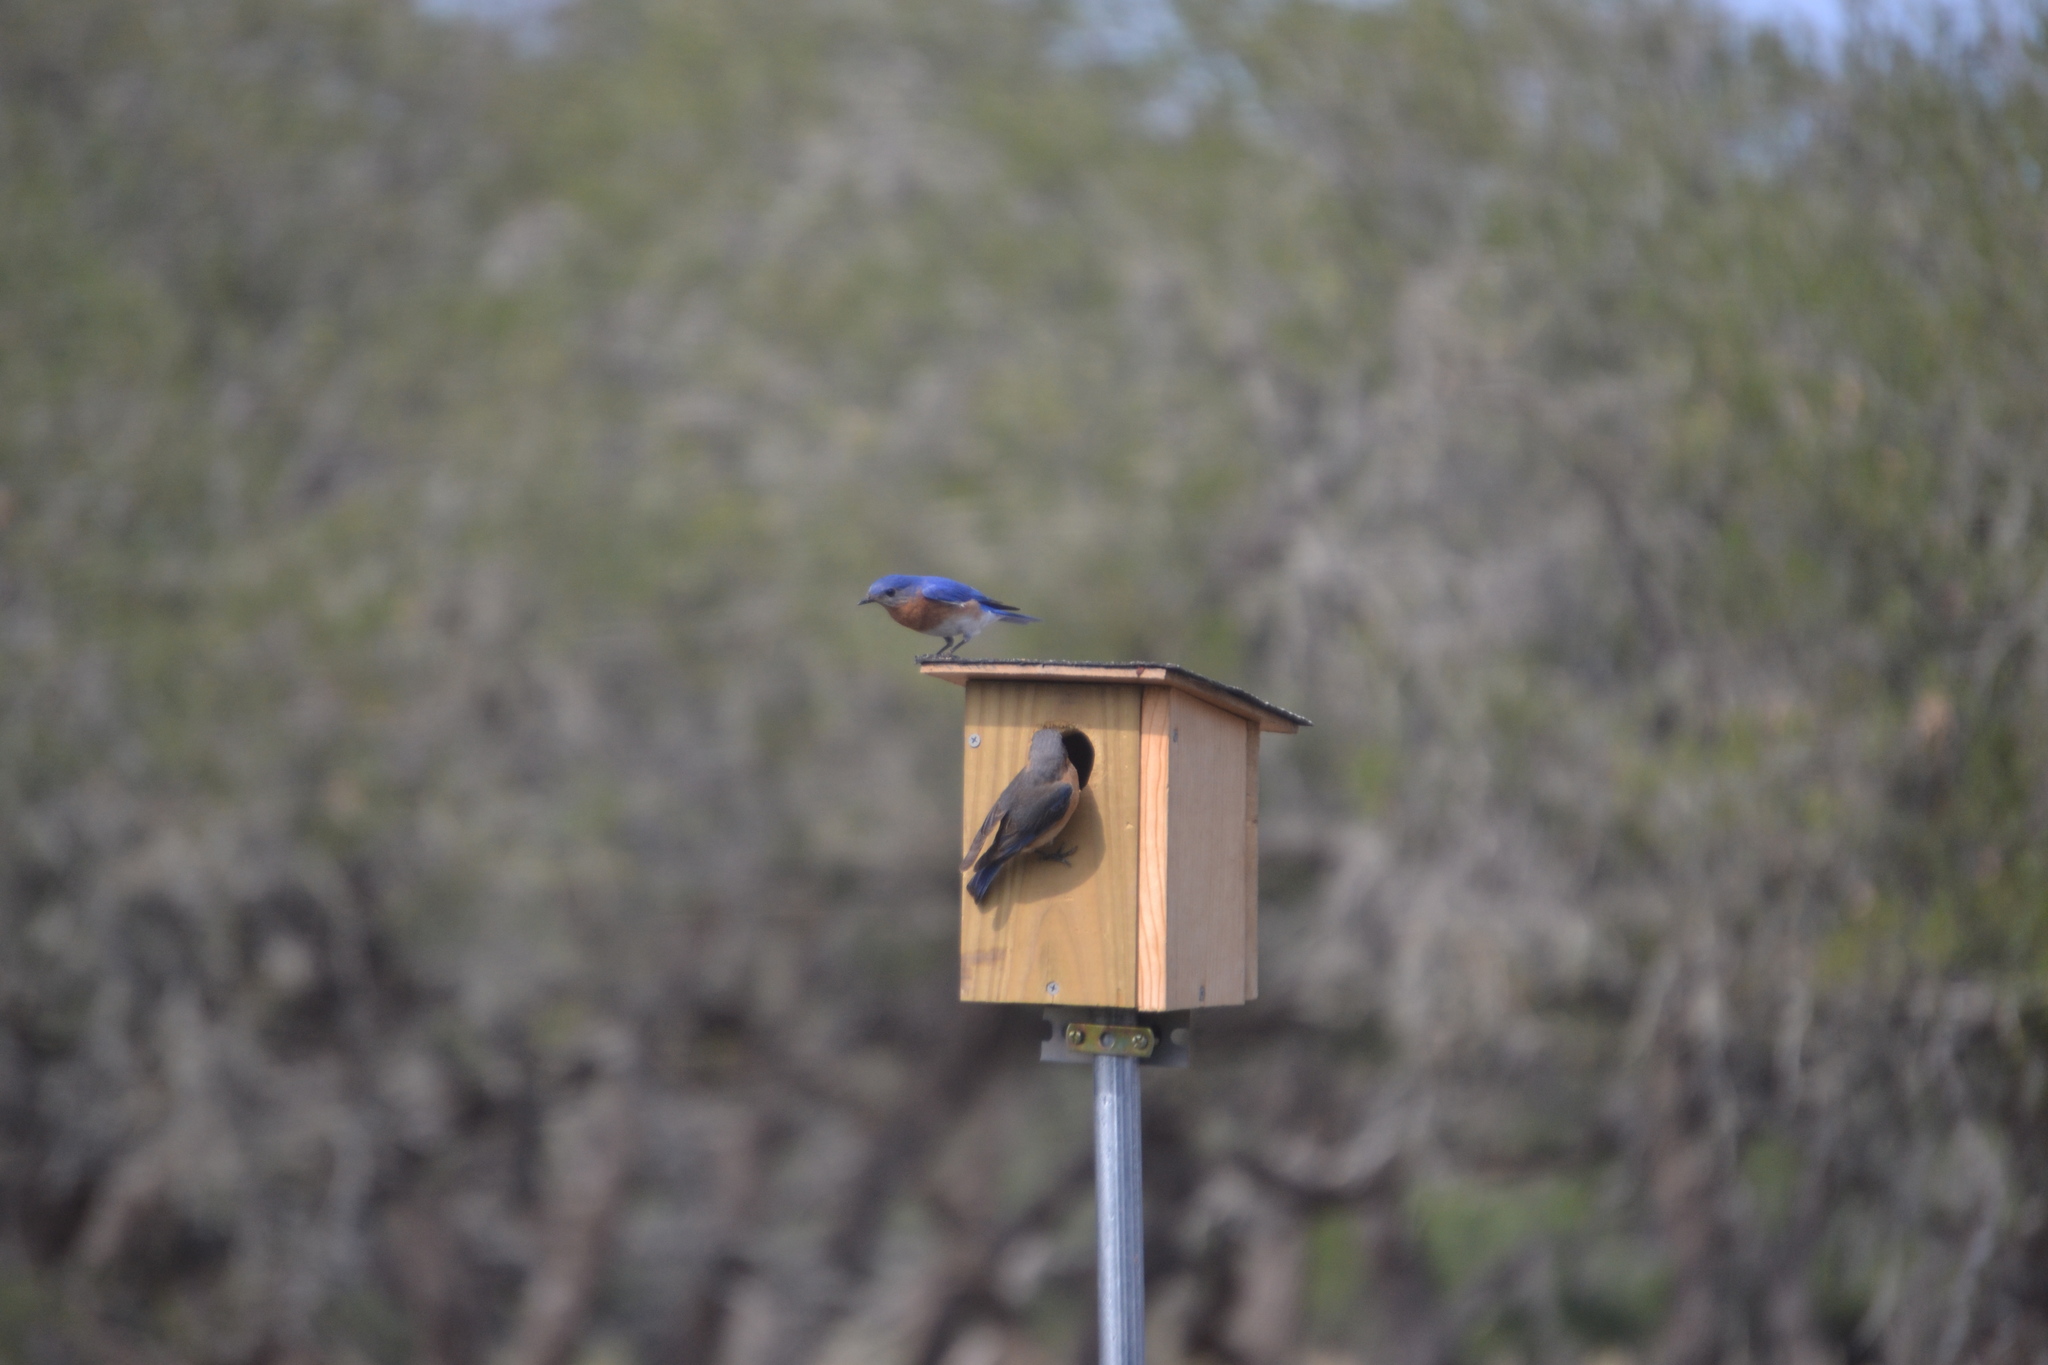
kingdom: Animalia
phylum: Chordata
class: Aves
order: Passeriformes
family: Turdidae
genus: Sialia
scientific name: Sialia sialis
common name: Eastern bluebird
